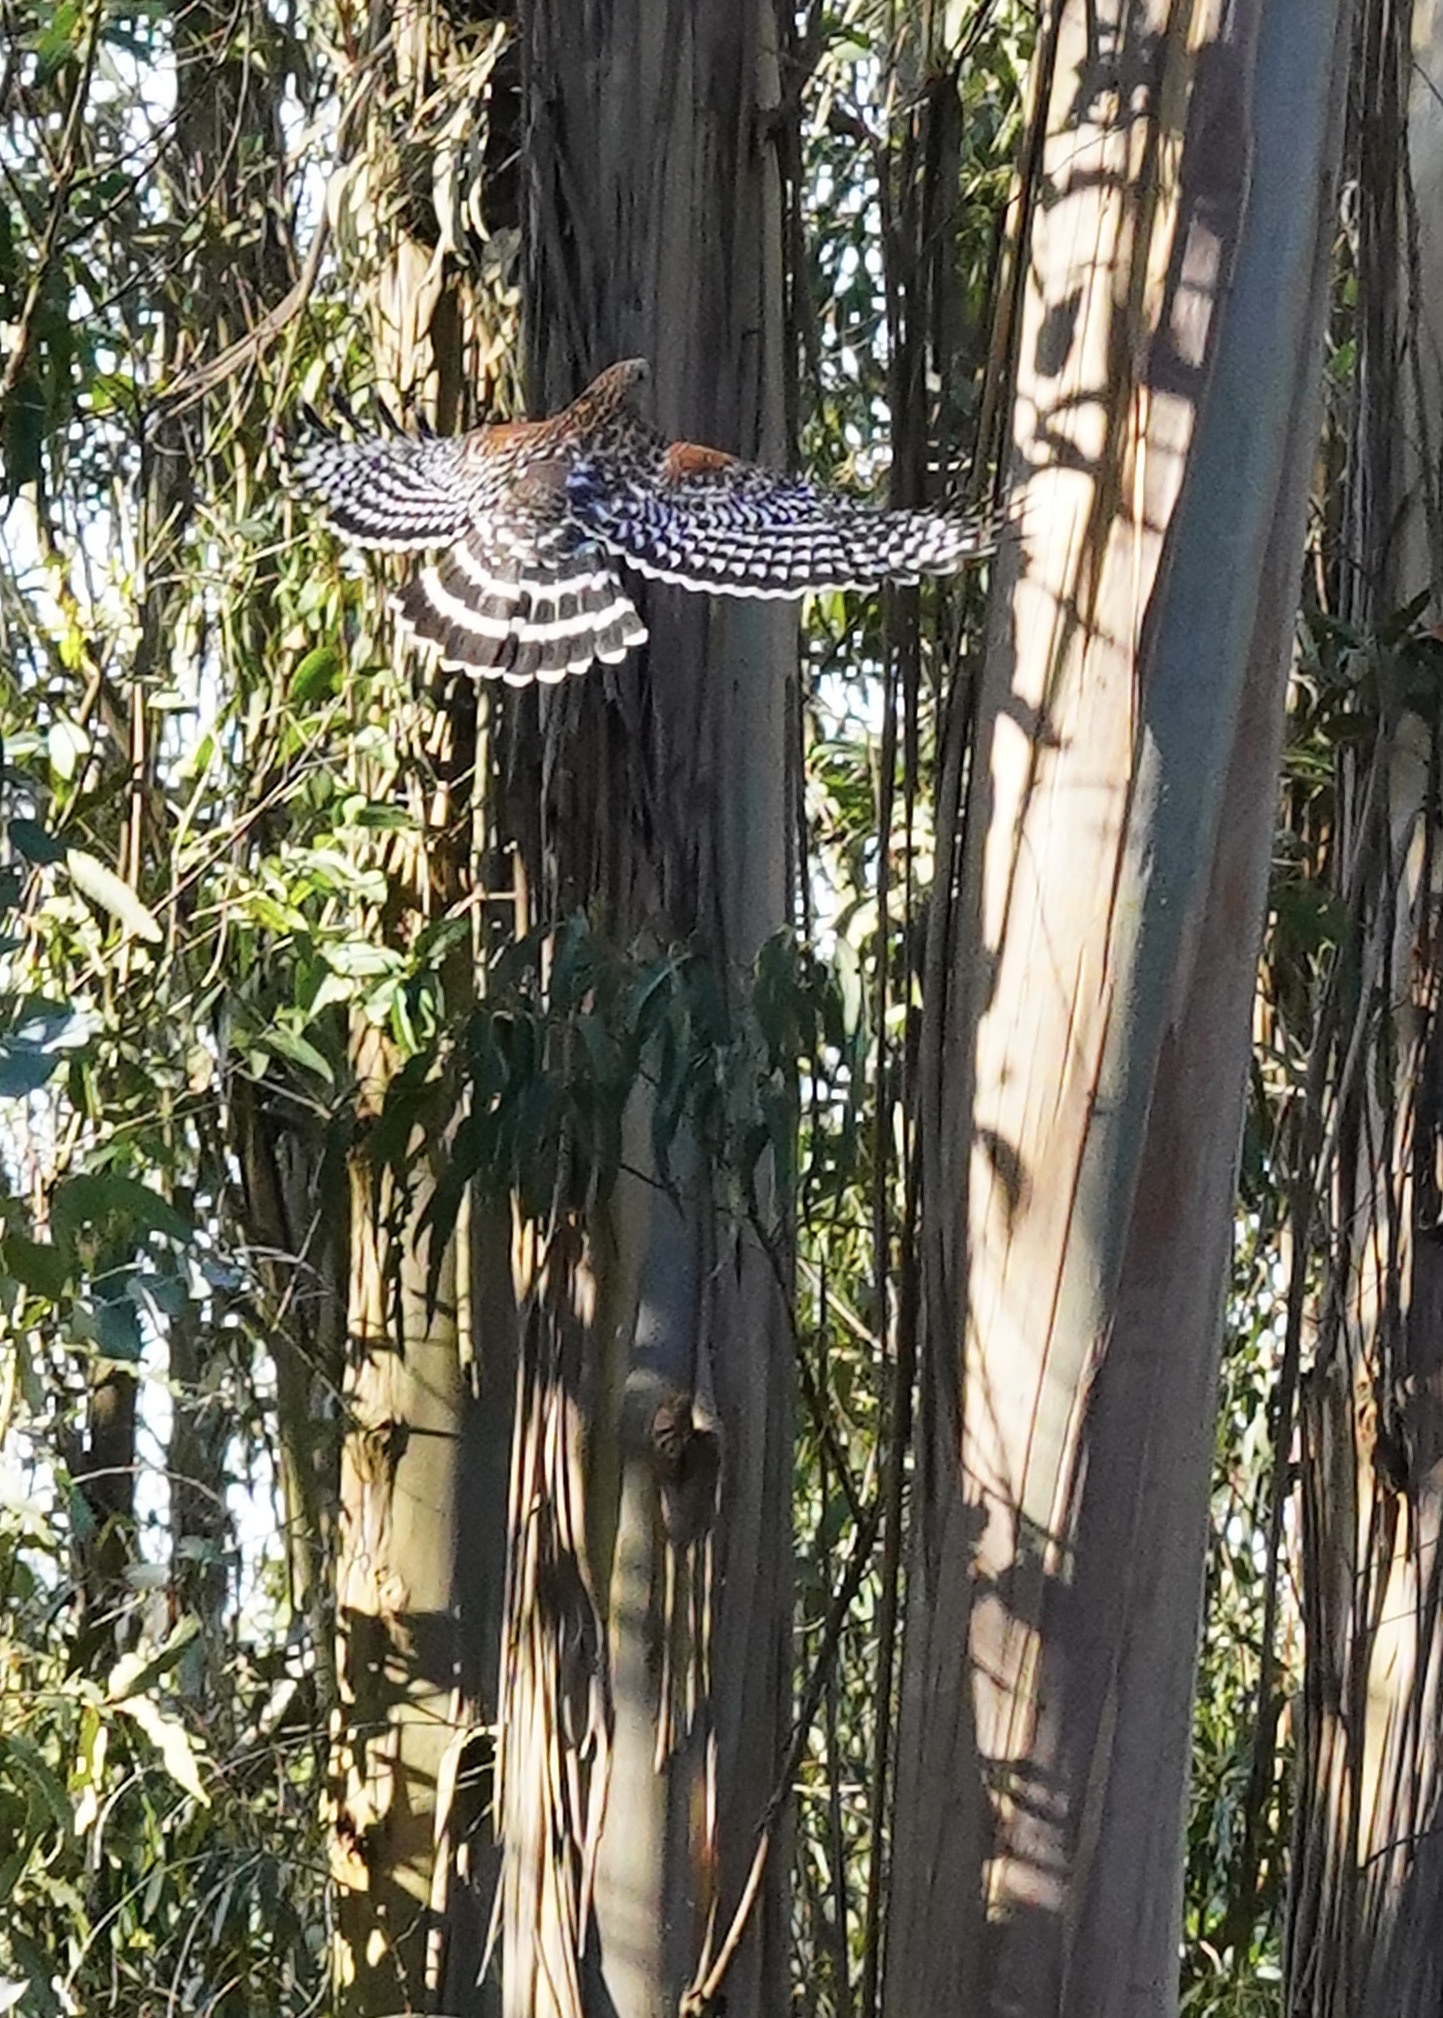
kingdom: Animalia
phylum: Chordata
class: Aves
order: Accipitriformes
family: Accipitridae
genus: Buteo
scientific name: Buteo lineatus
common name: Red-shouldered hawk
